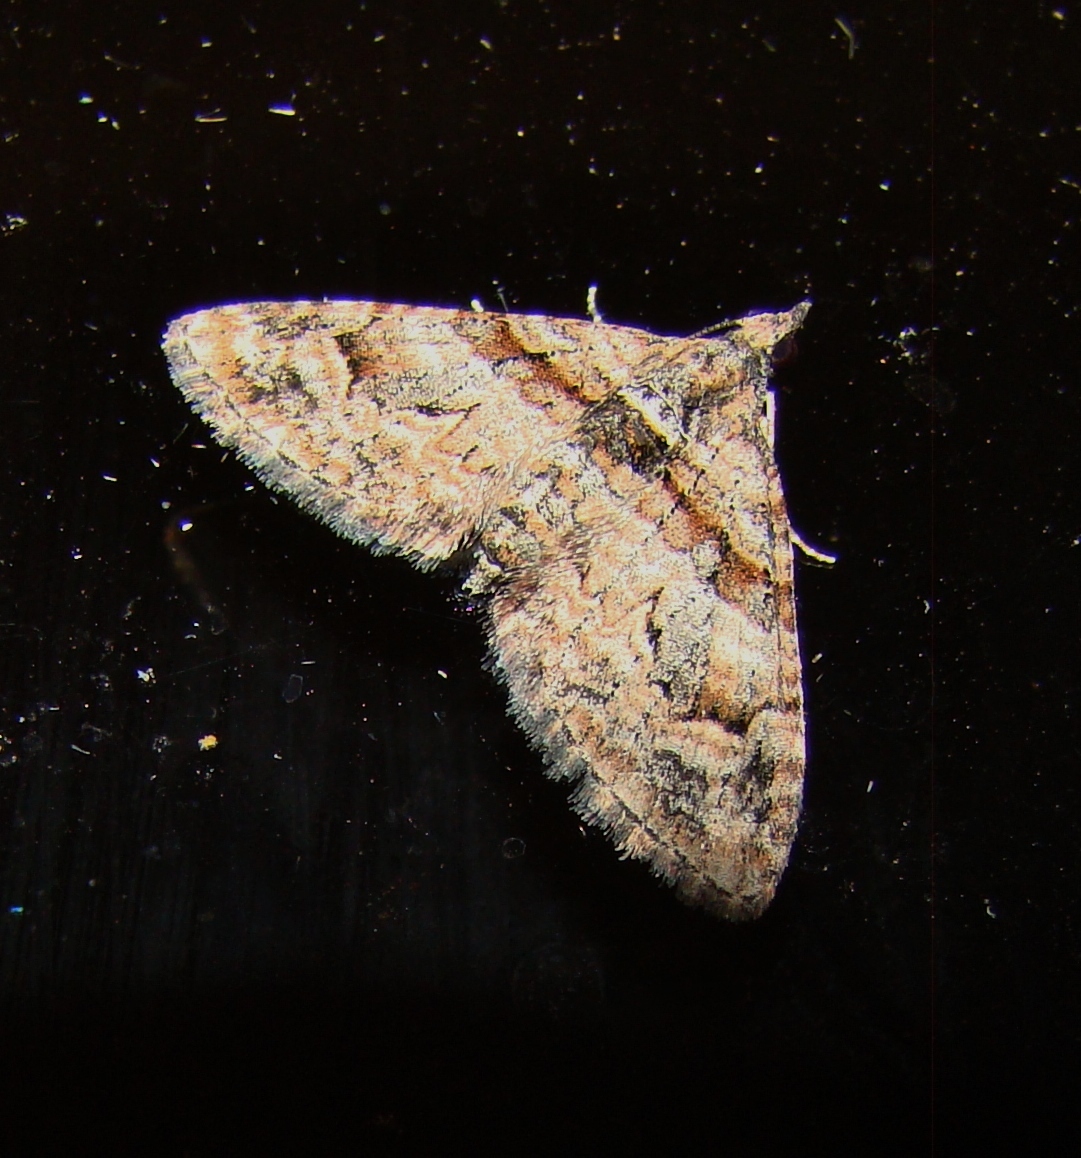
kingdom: Animalia
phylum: Arthropoda
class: Insecta
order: Lepidoptera
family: Geometridae
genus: Phrissogonus
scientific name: Phrissogonus laticostata
